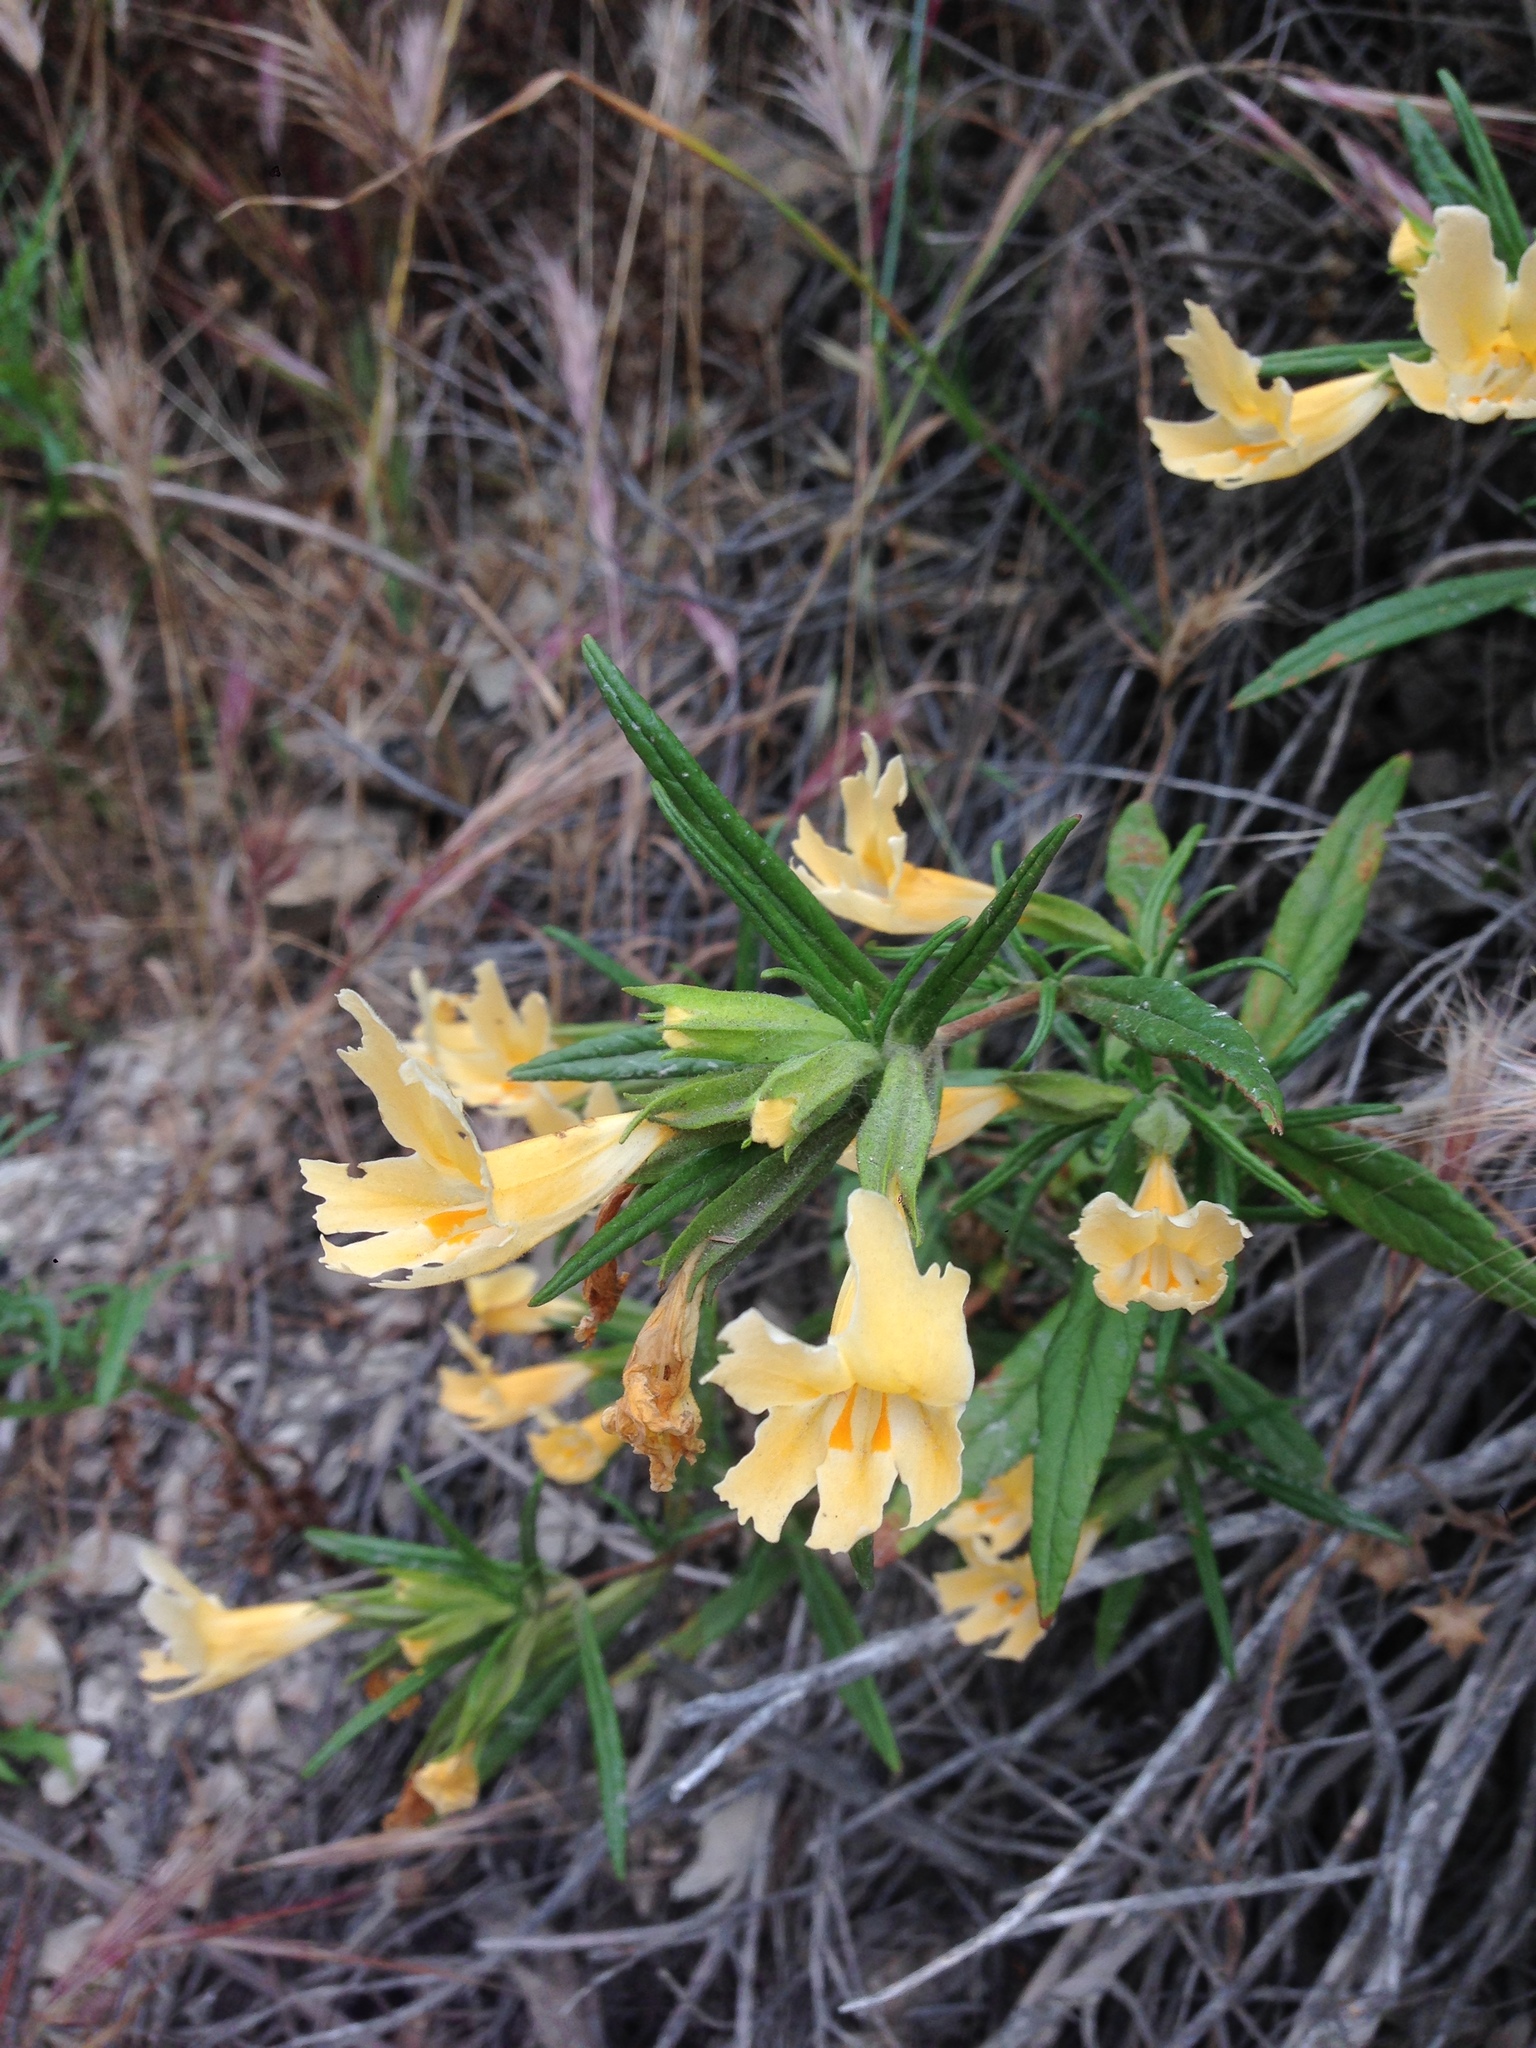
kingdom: Plantae
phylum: Tracheophyta
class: Magnoliopsida
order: Lamiales
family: Phrymaceae
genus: Diplacus
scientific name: Diplacus longiflorus
